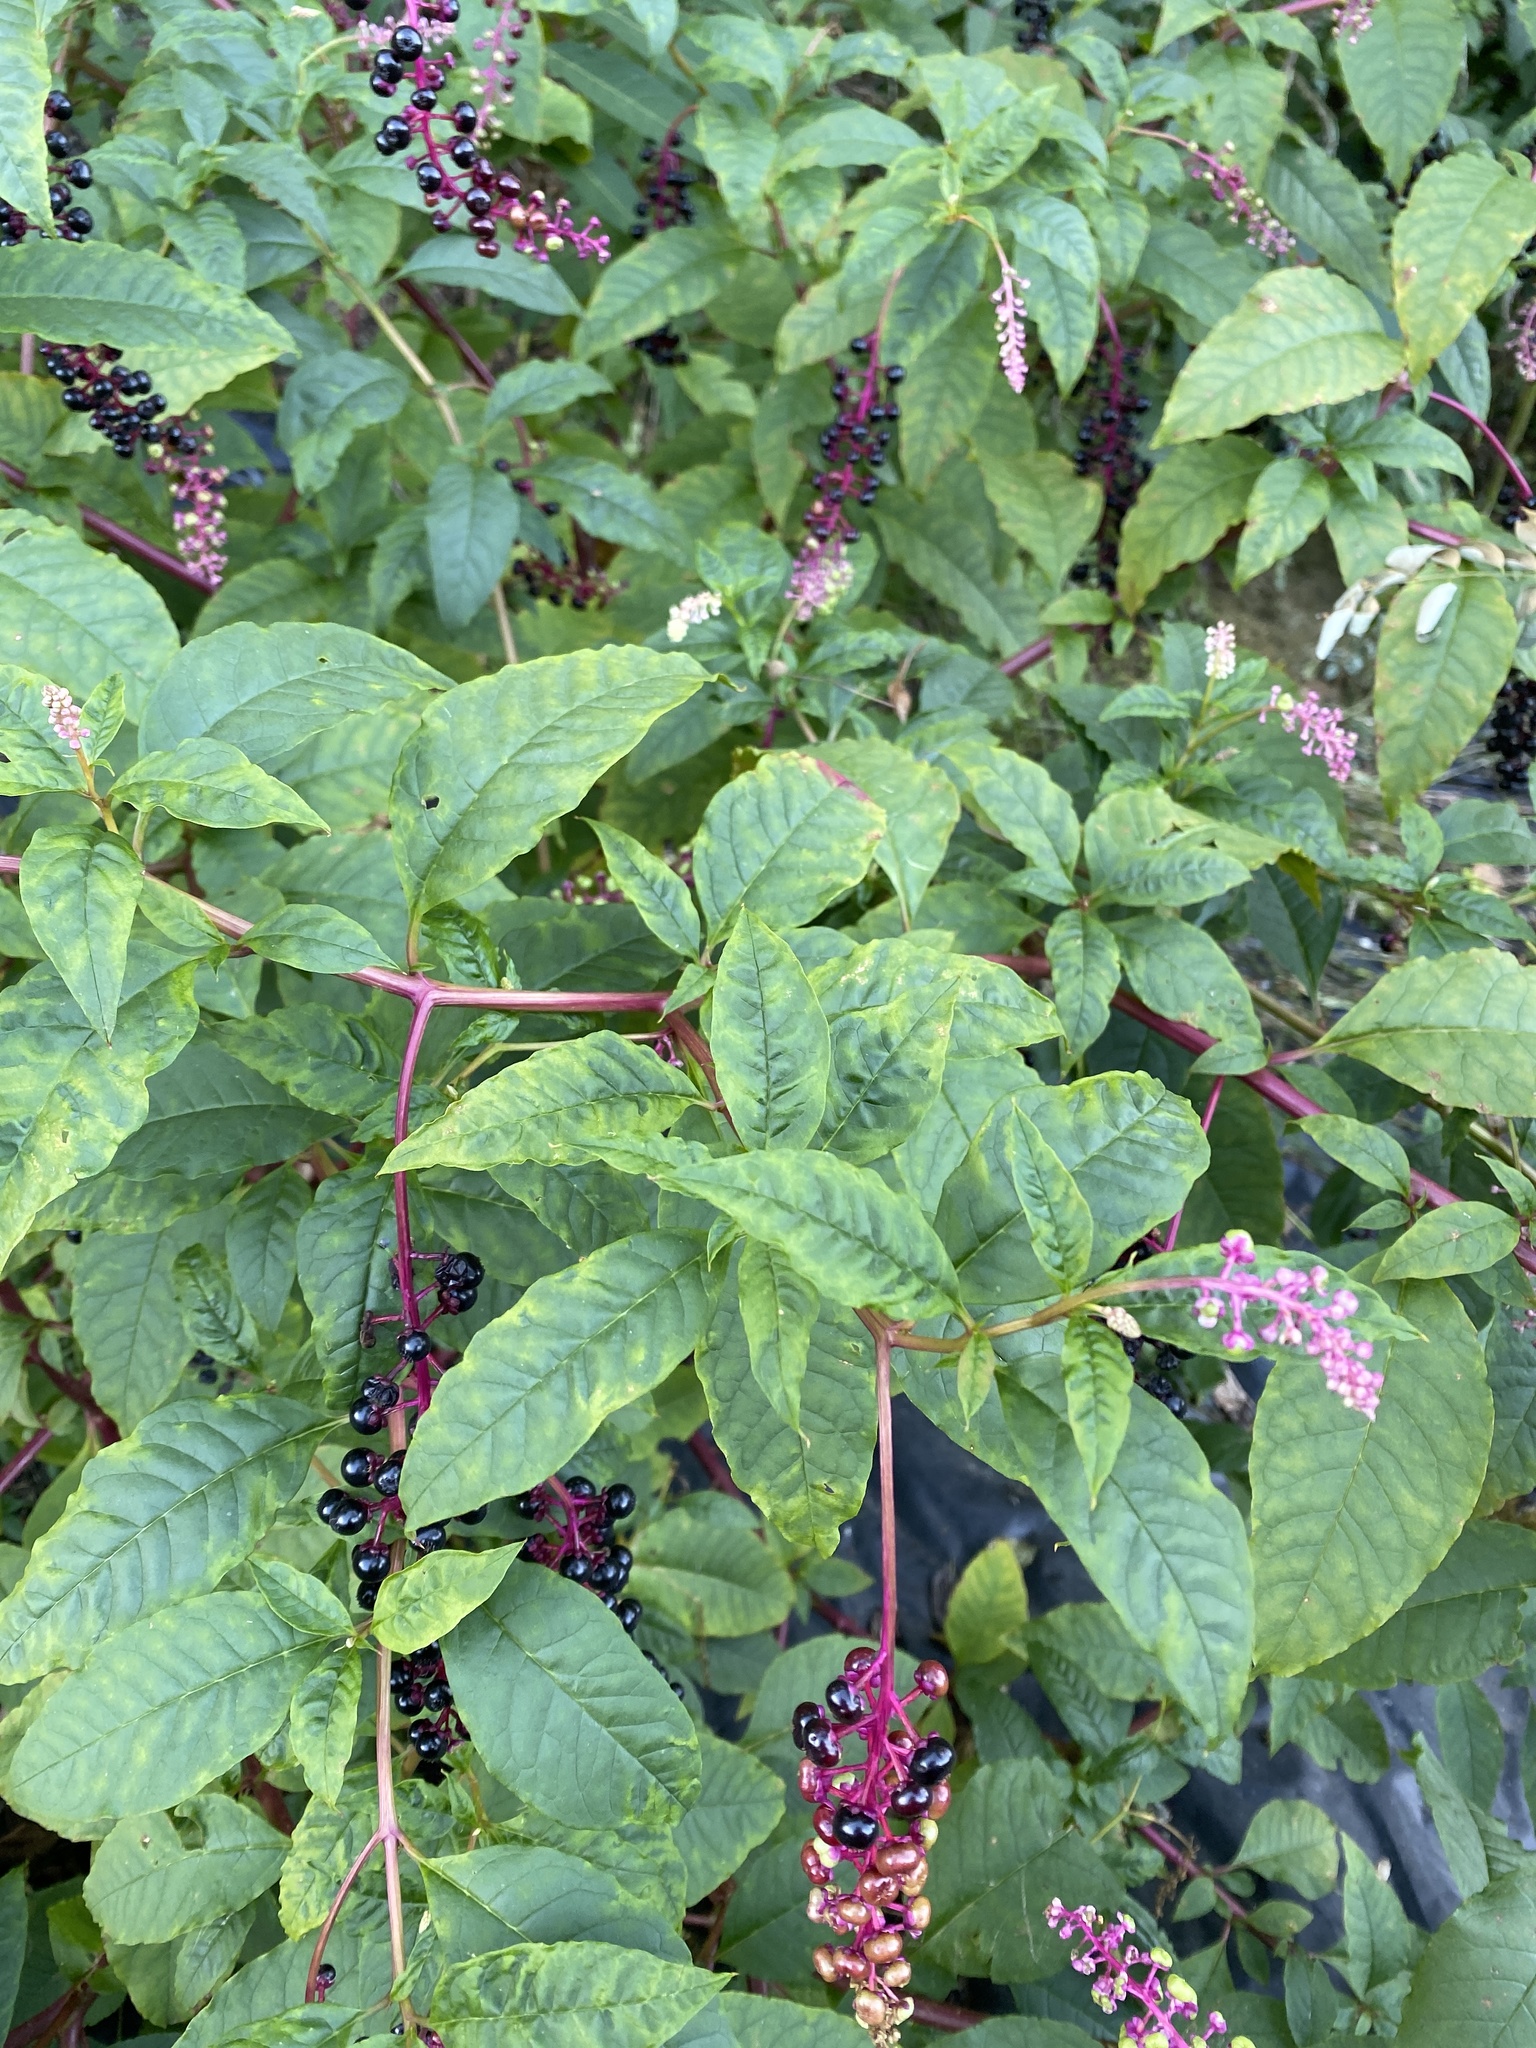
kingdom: Plantae
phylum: Tracheophyta
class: Magnoliopsida
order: Caryophyllales
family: Phytolaccaceae
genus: Phytolacca
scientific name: Phytolacca americana
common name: American pokeweed
